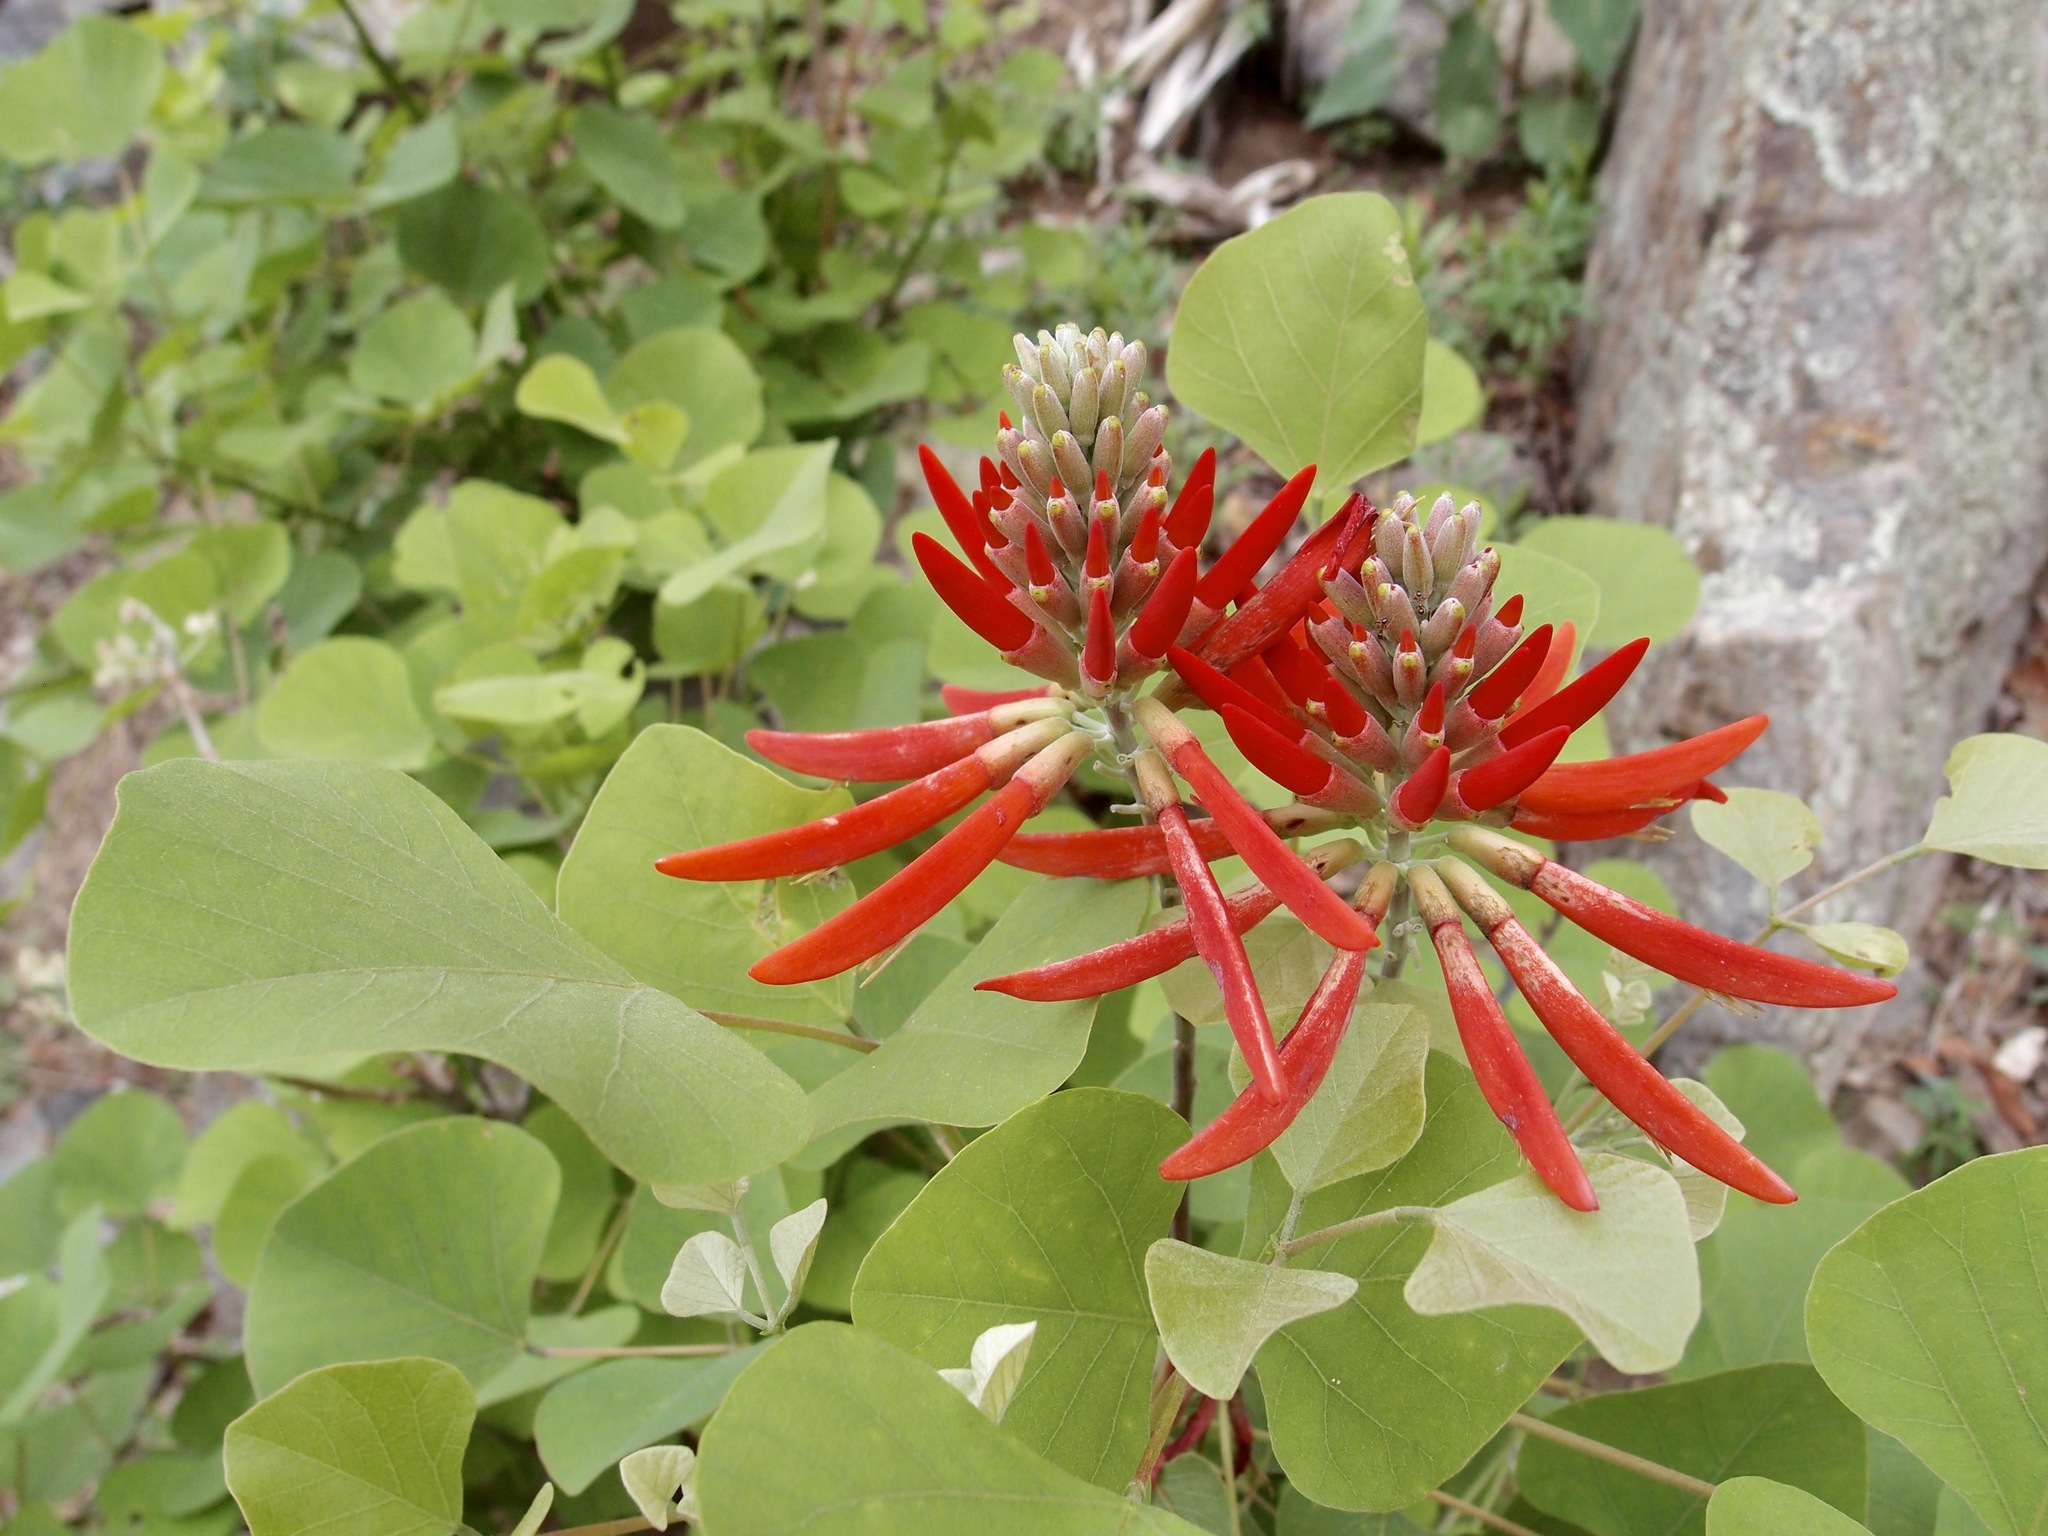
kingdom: Plantae
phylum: Tracheophyta
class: Magnoliopsida
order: Fabales
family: Fabaceae
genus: Erythrina
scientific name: Erythrina flabelliformis
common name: Chilicote
